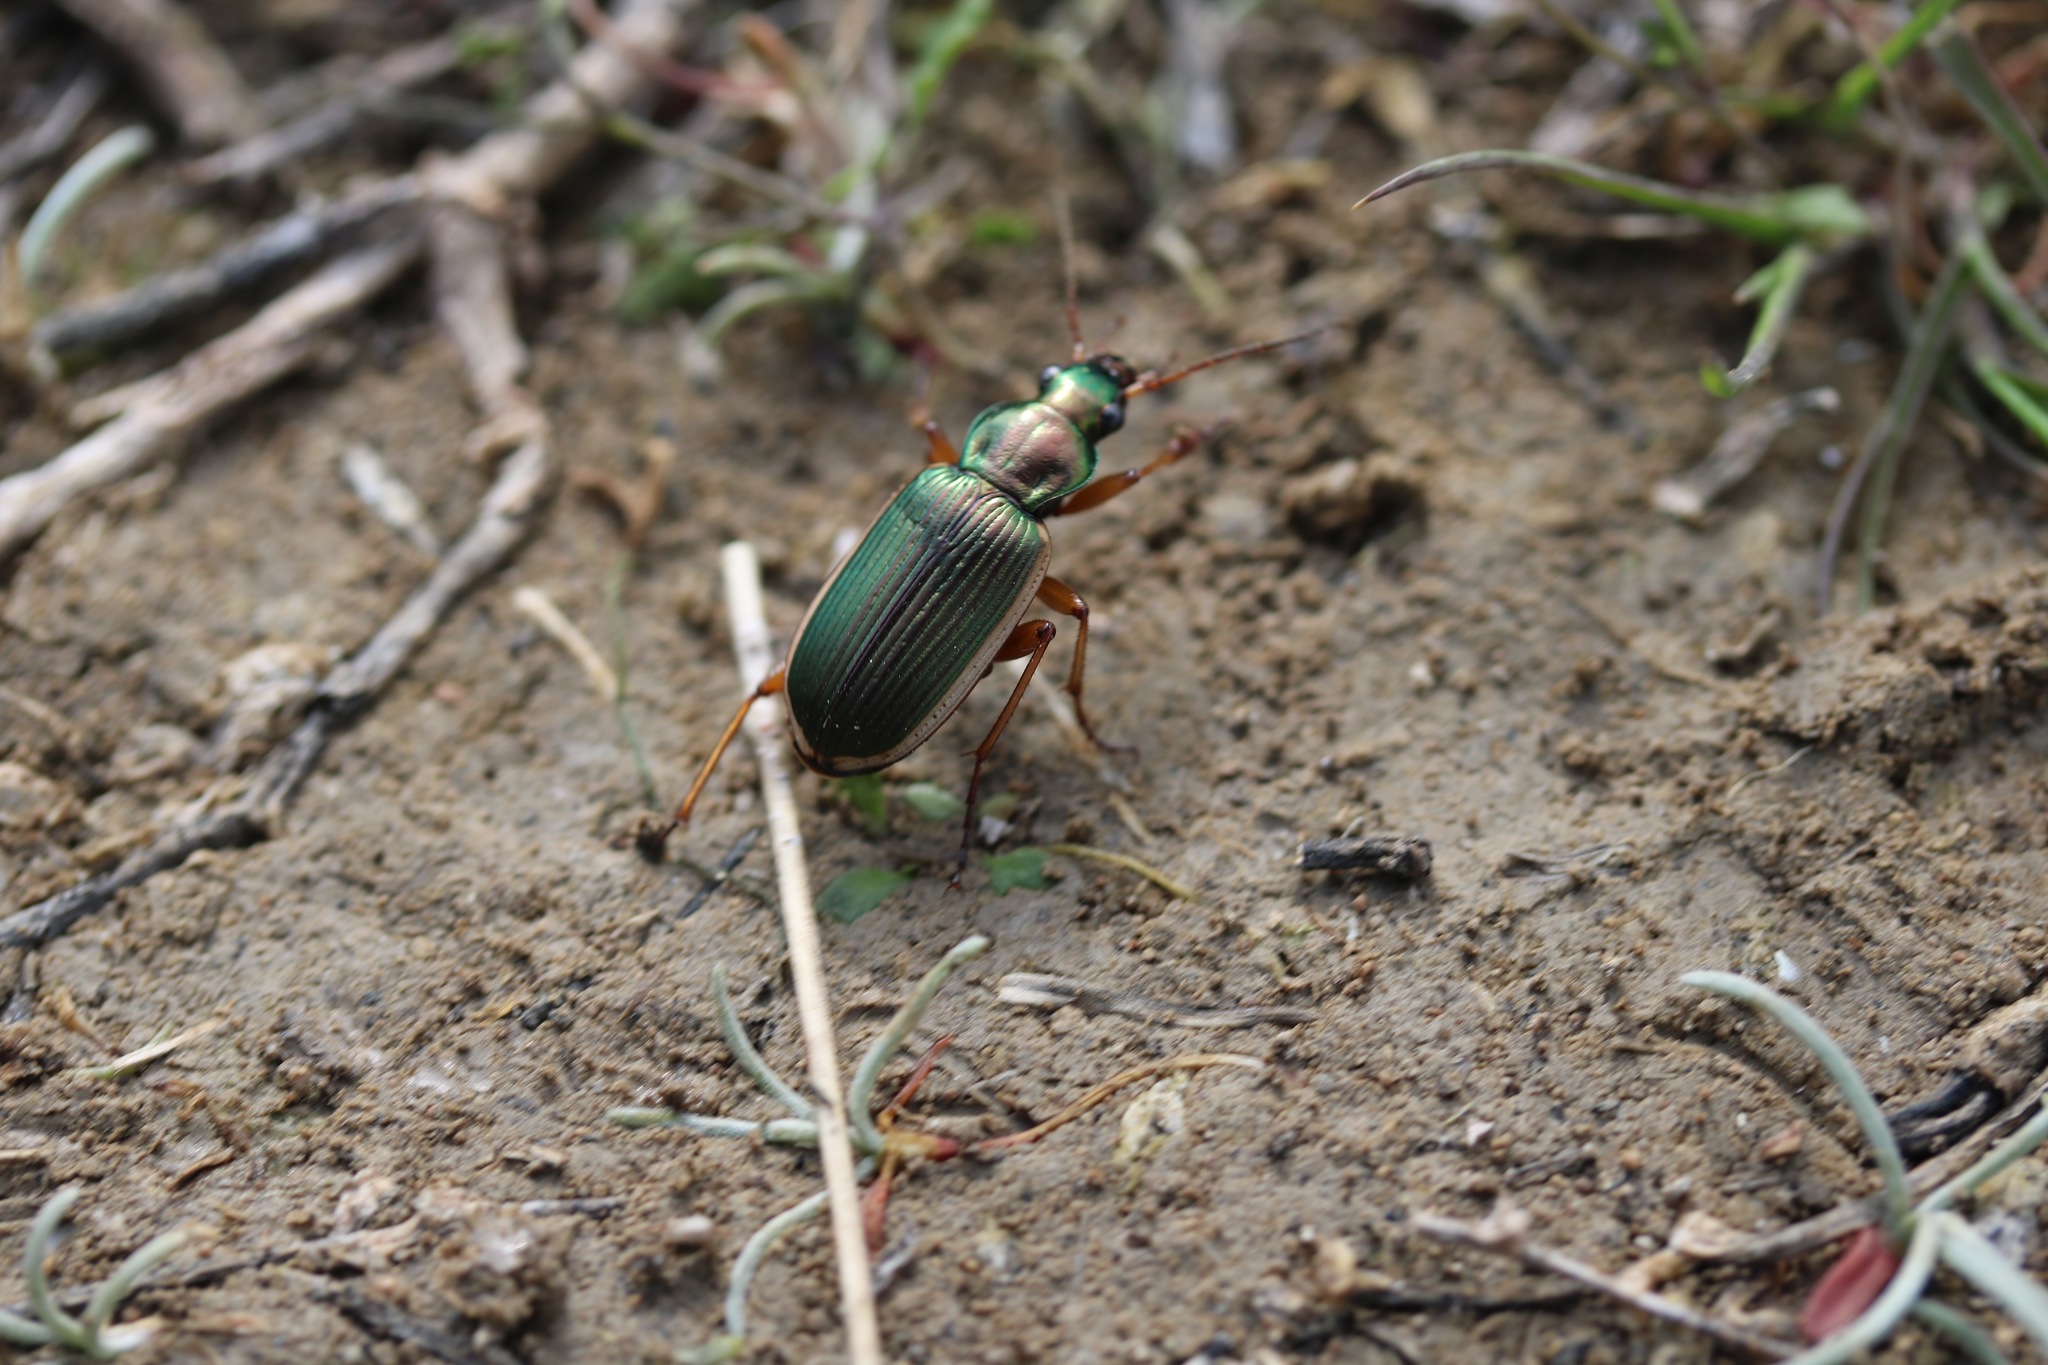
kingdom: Animalia
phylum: Arthropoda
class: Insecta
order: Coleoptera
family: Carabidae
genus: Chlaenius
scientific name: Chlaenius spoliatus
